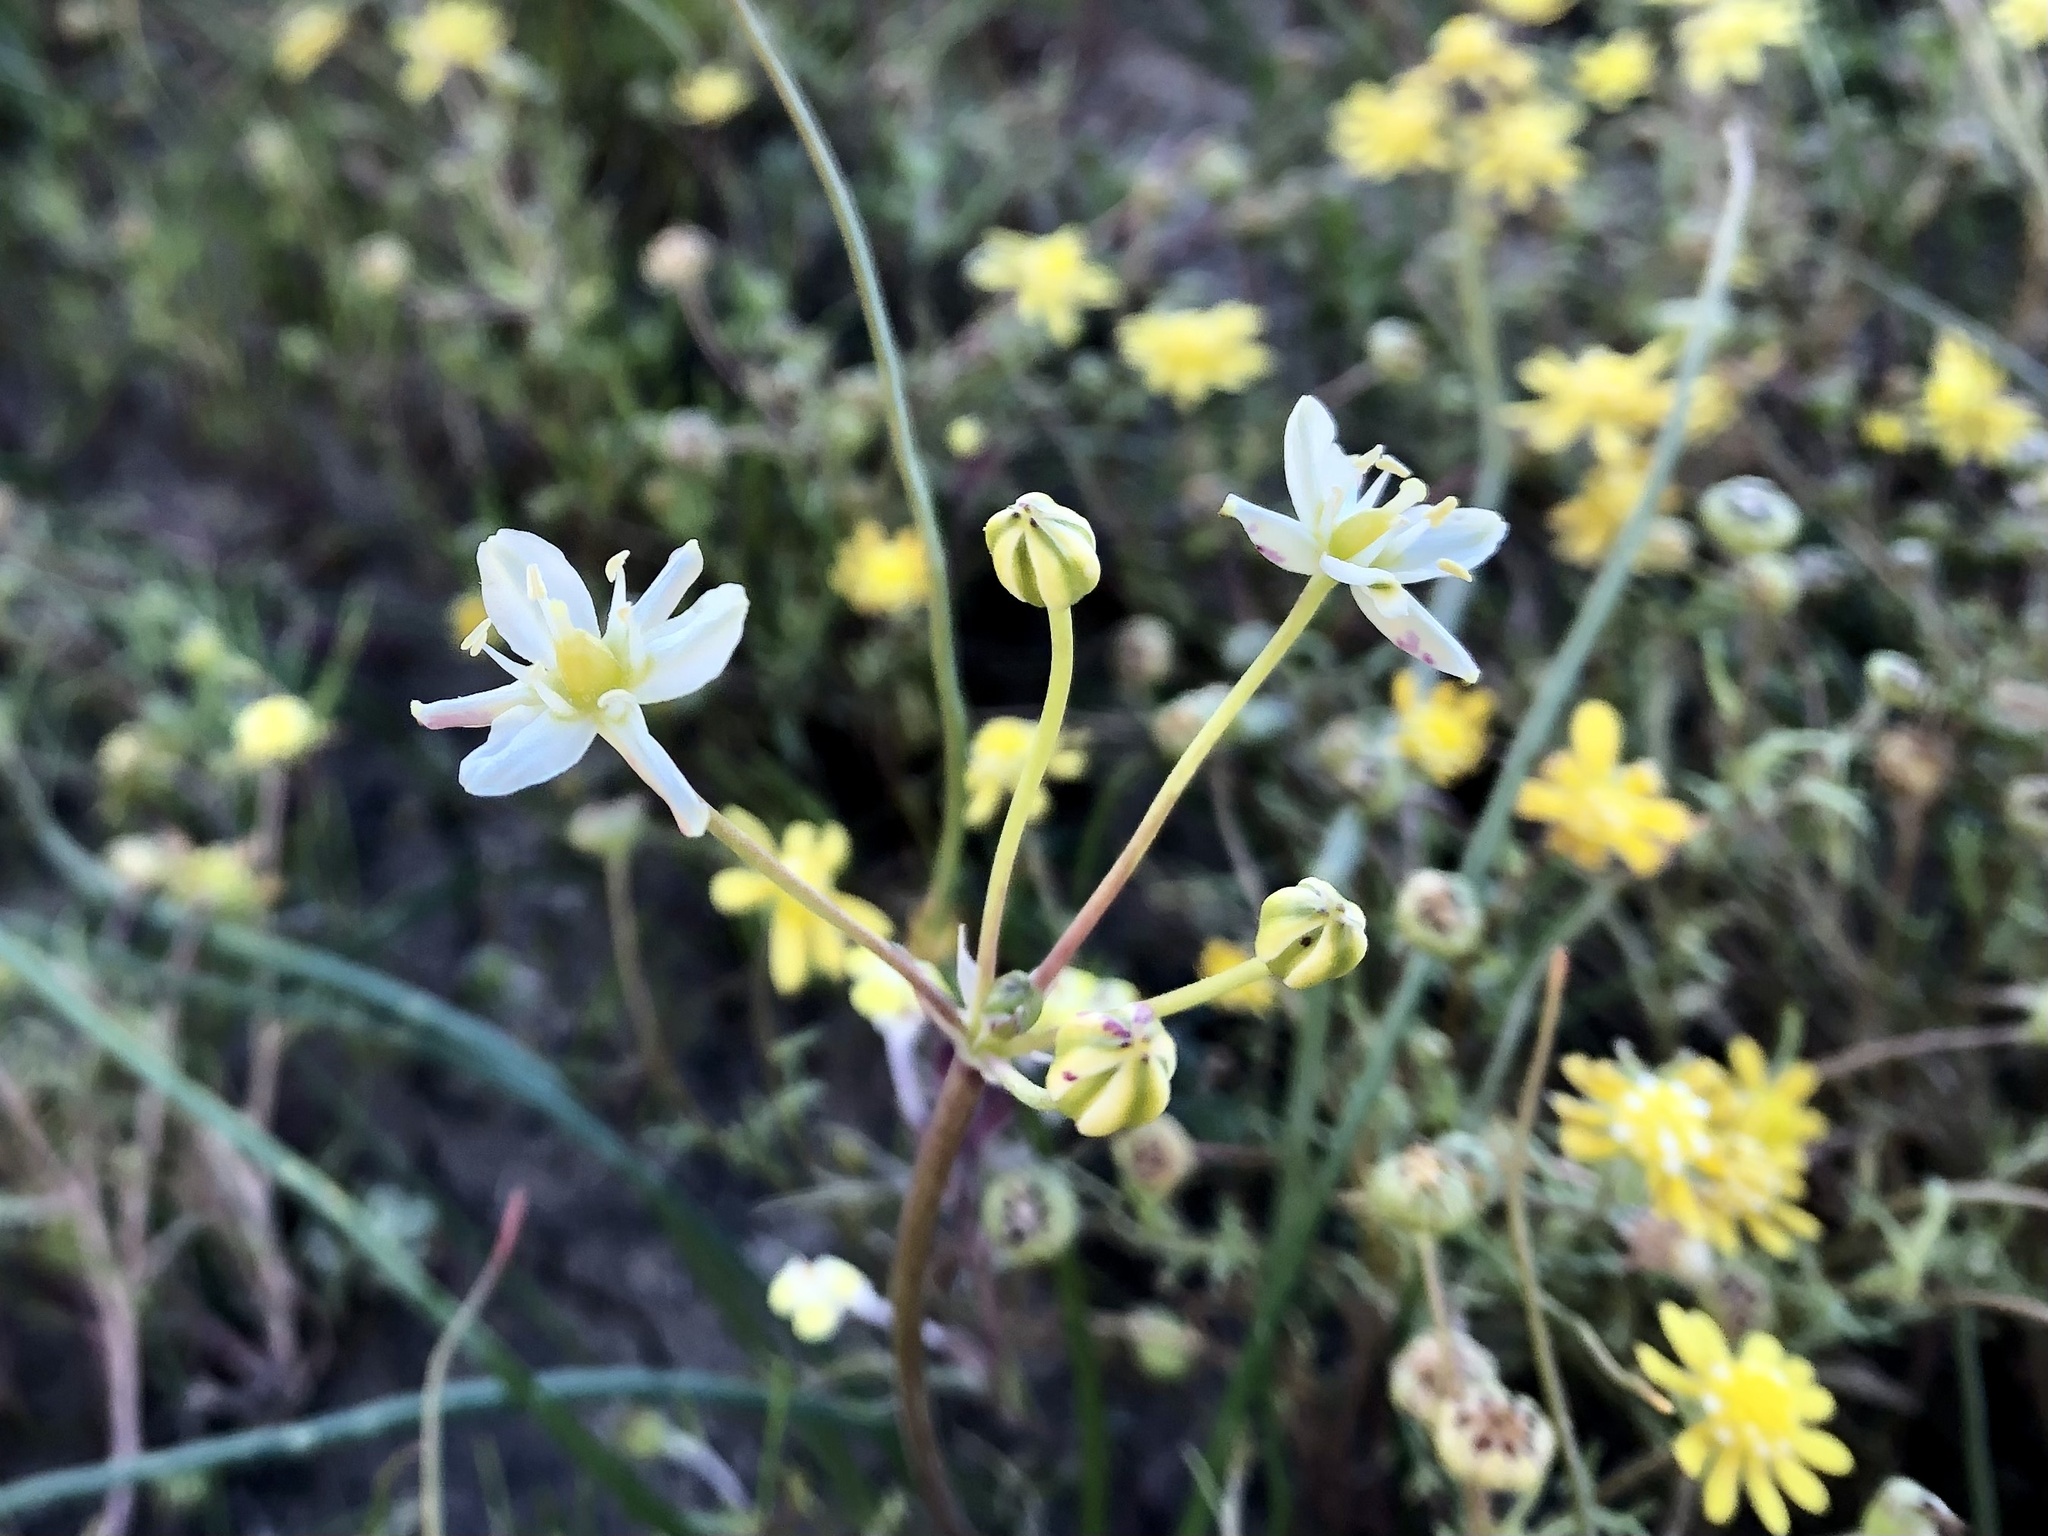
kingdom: Plantae
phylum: Tracheophyta
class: Liliopsida
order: Asparagales
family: Asparagaceae
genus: Muilla
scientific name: Muilla maritima
